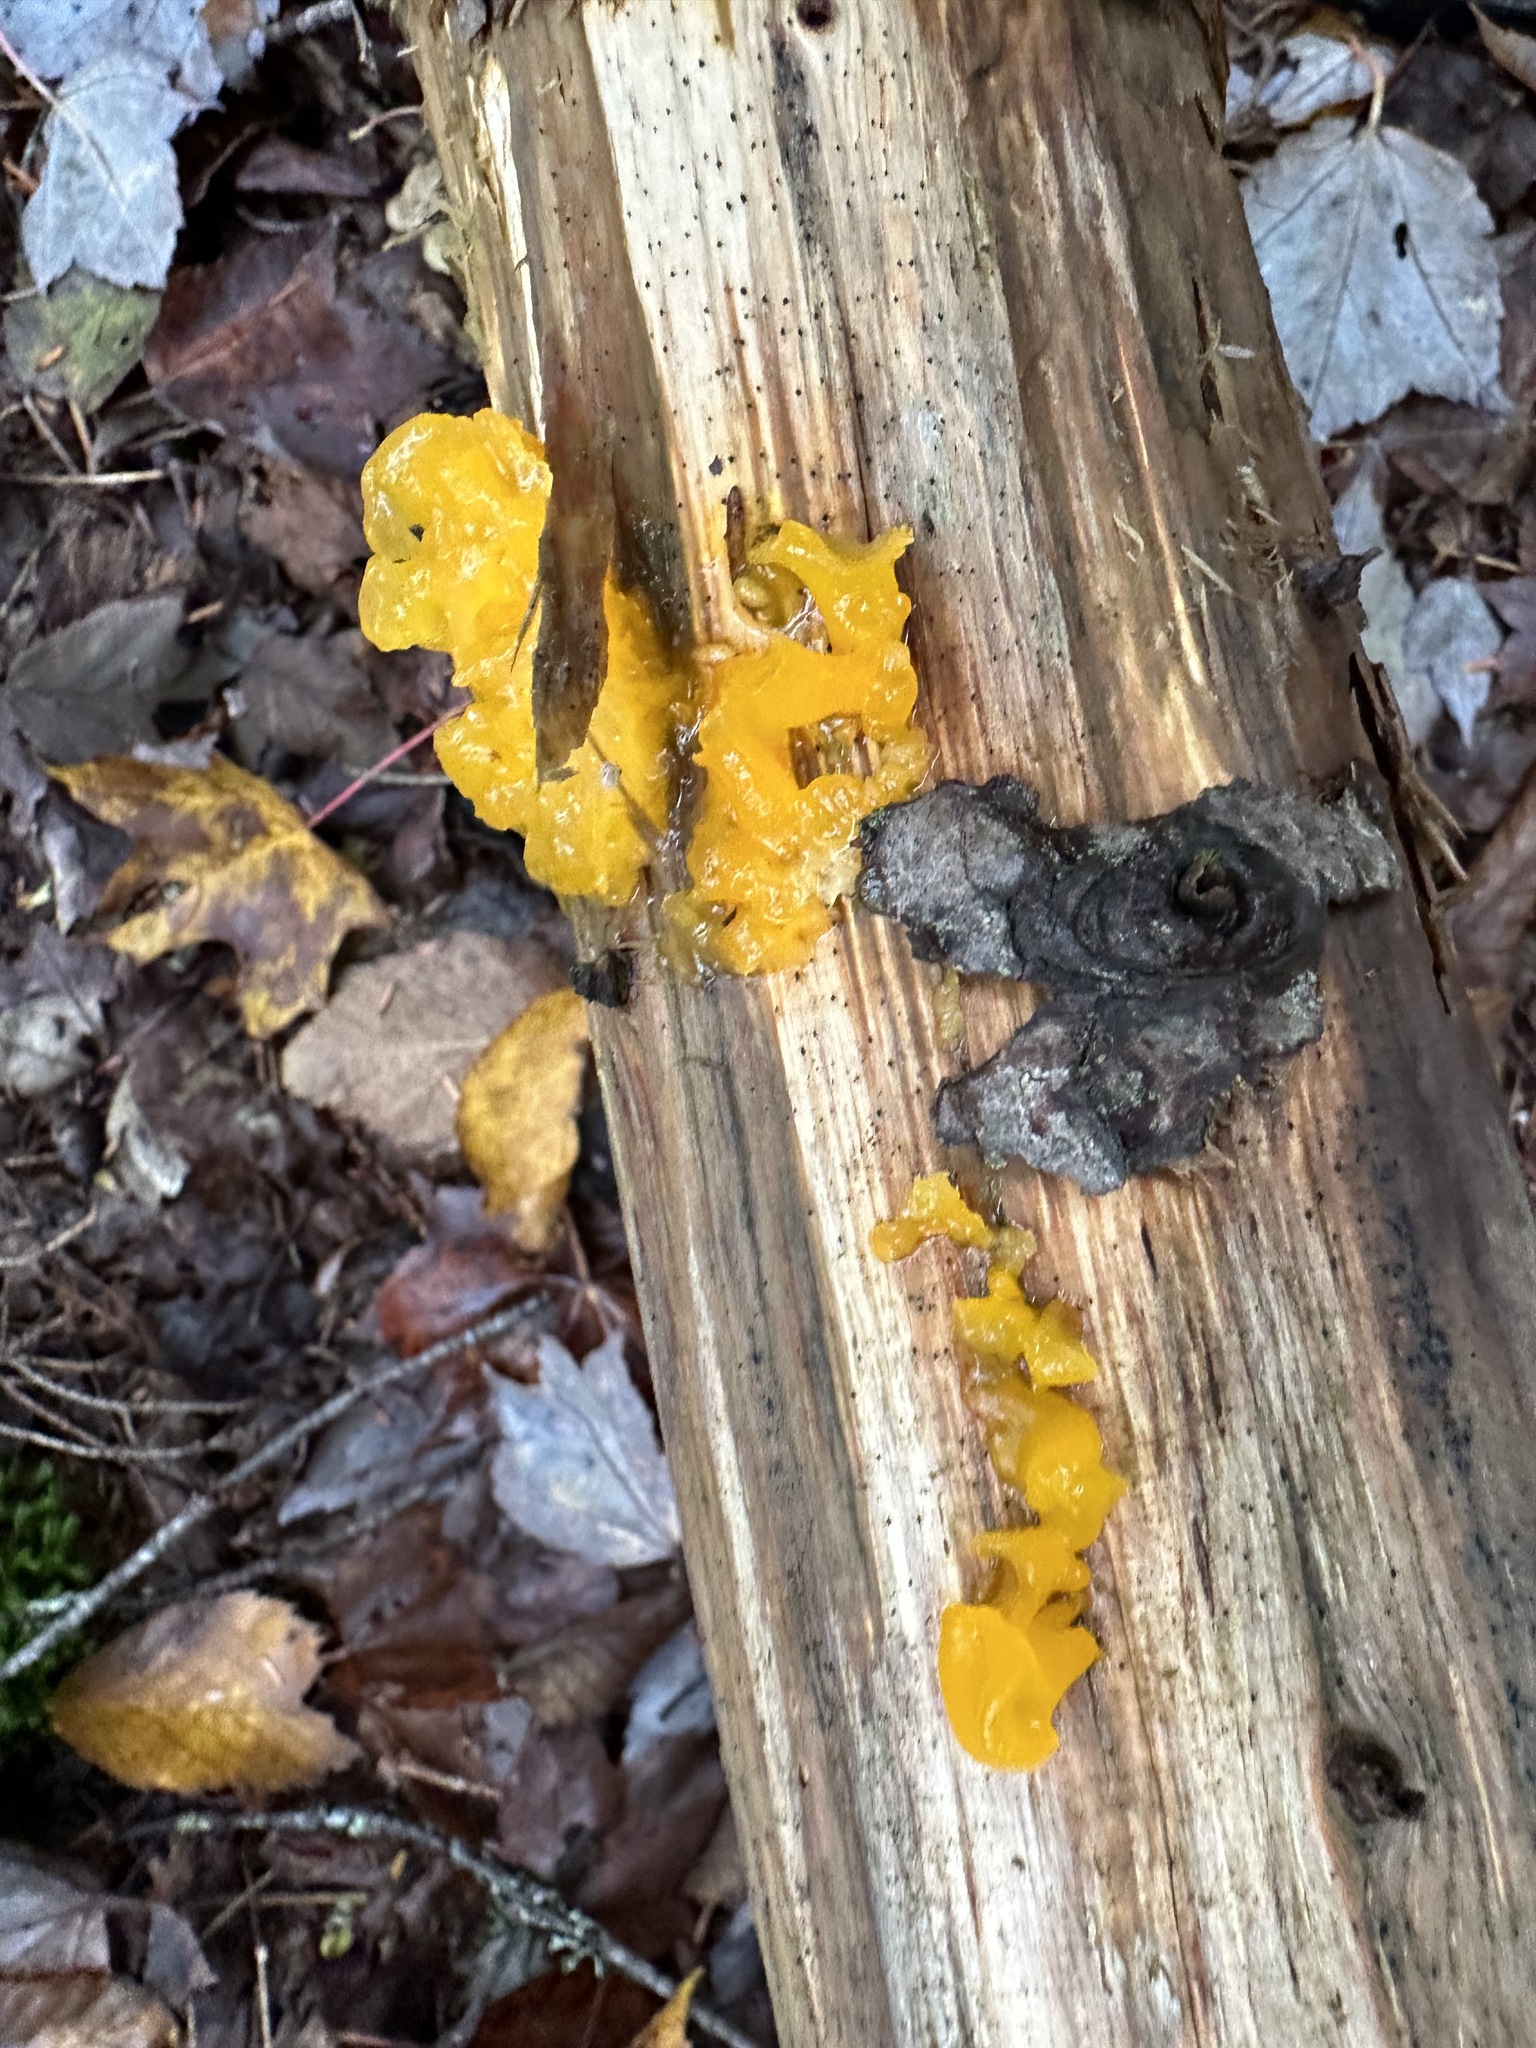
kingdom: Fungi
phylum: Basidiomycota
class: Dacrymycetes
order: Dacrymycetales
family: Dacrymycetaceae
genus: Dacrymyces
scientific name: Dacrymyces chrysospermus
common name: Orange jelly spot
